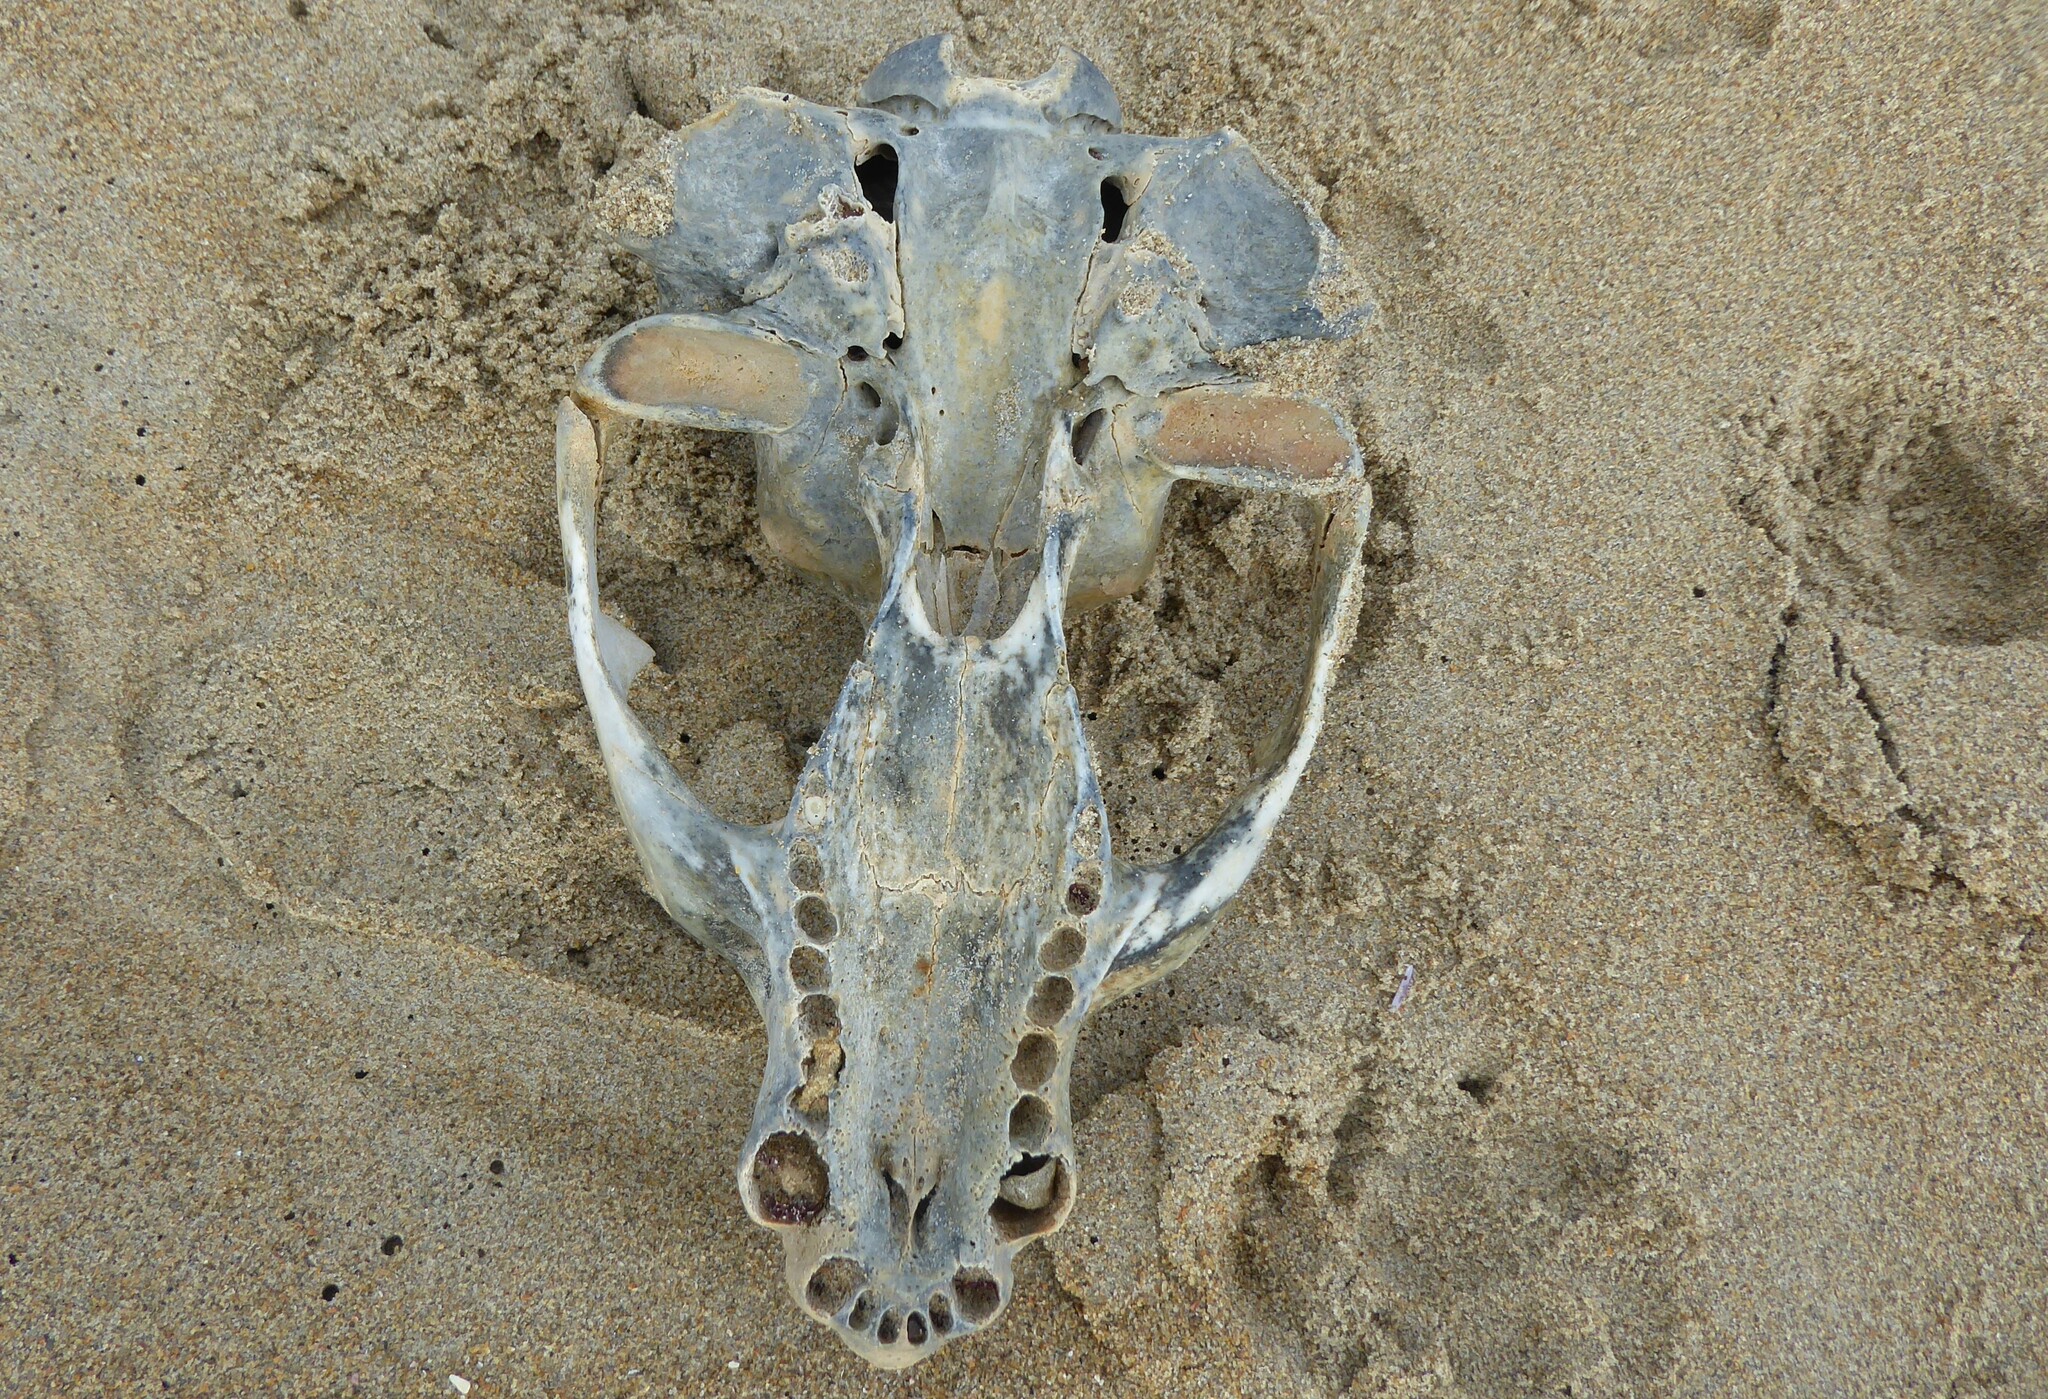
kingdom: Animalia
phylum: Chordata
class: Mammalia
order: Carnivora
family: Otariidae
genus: Phocarctos
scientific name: Phocarctos hookeri
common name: New zealand sea lion
